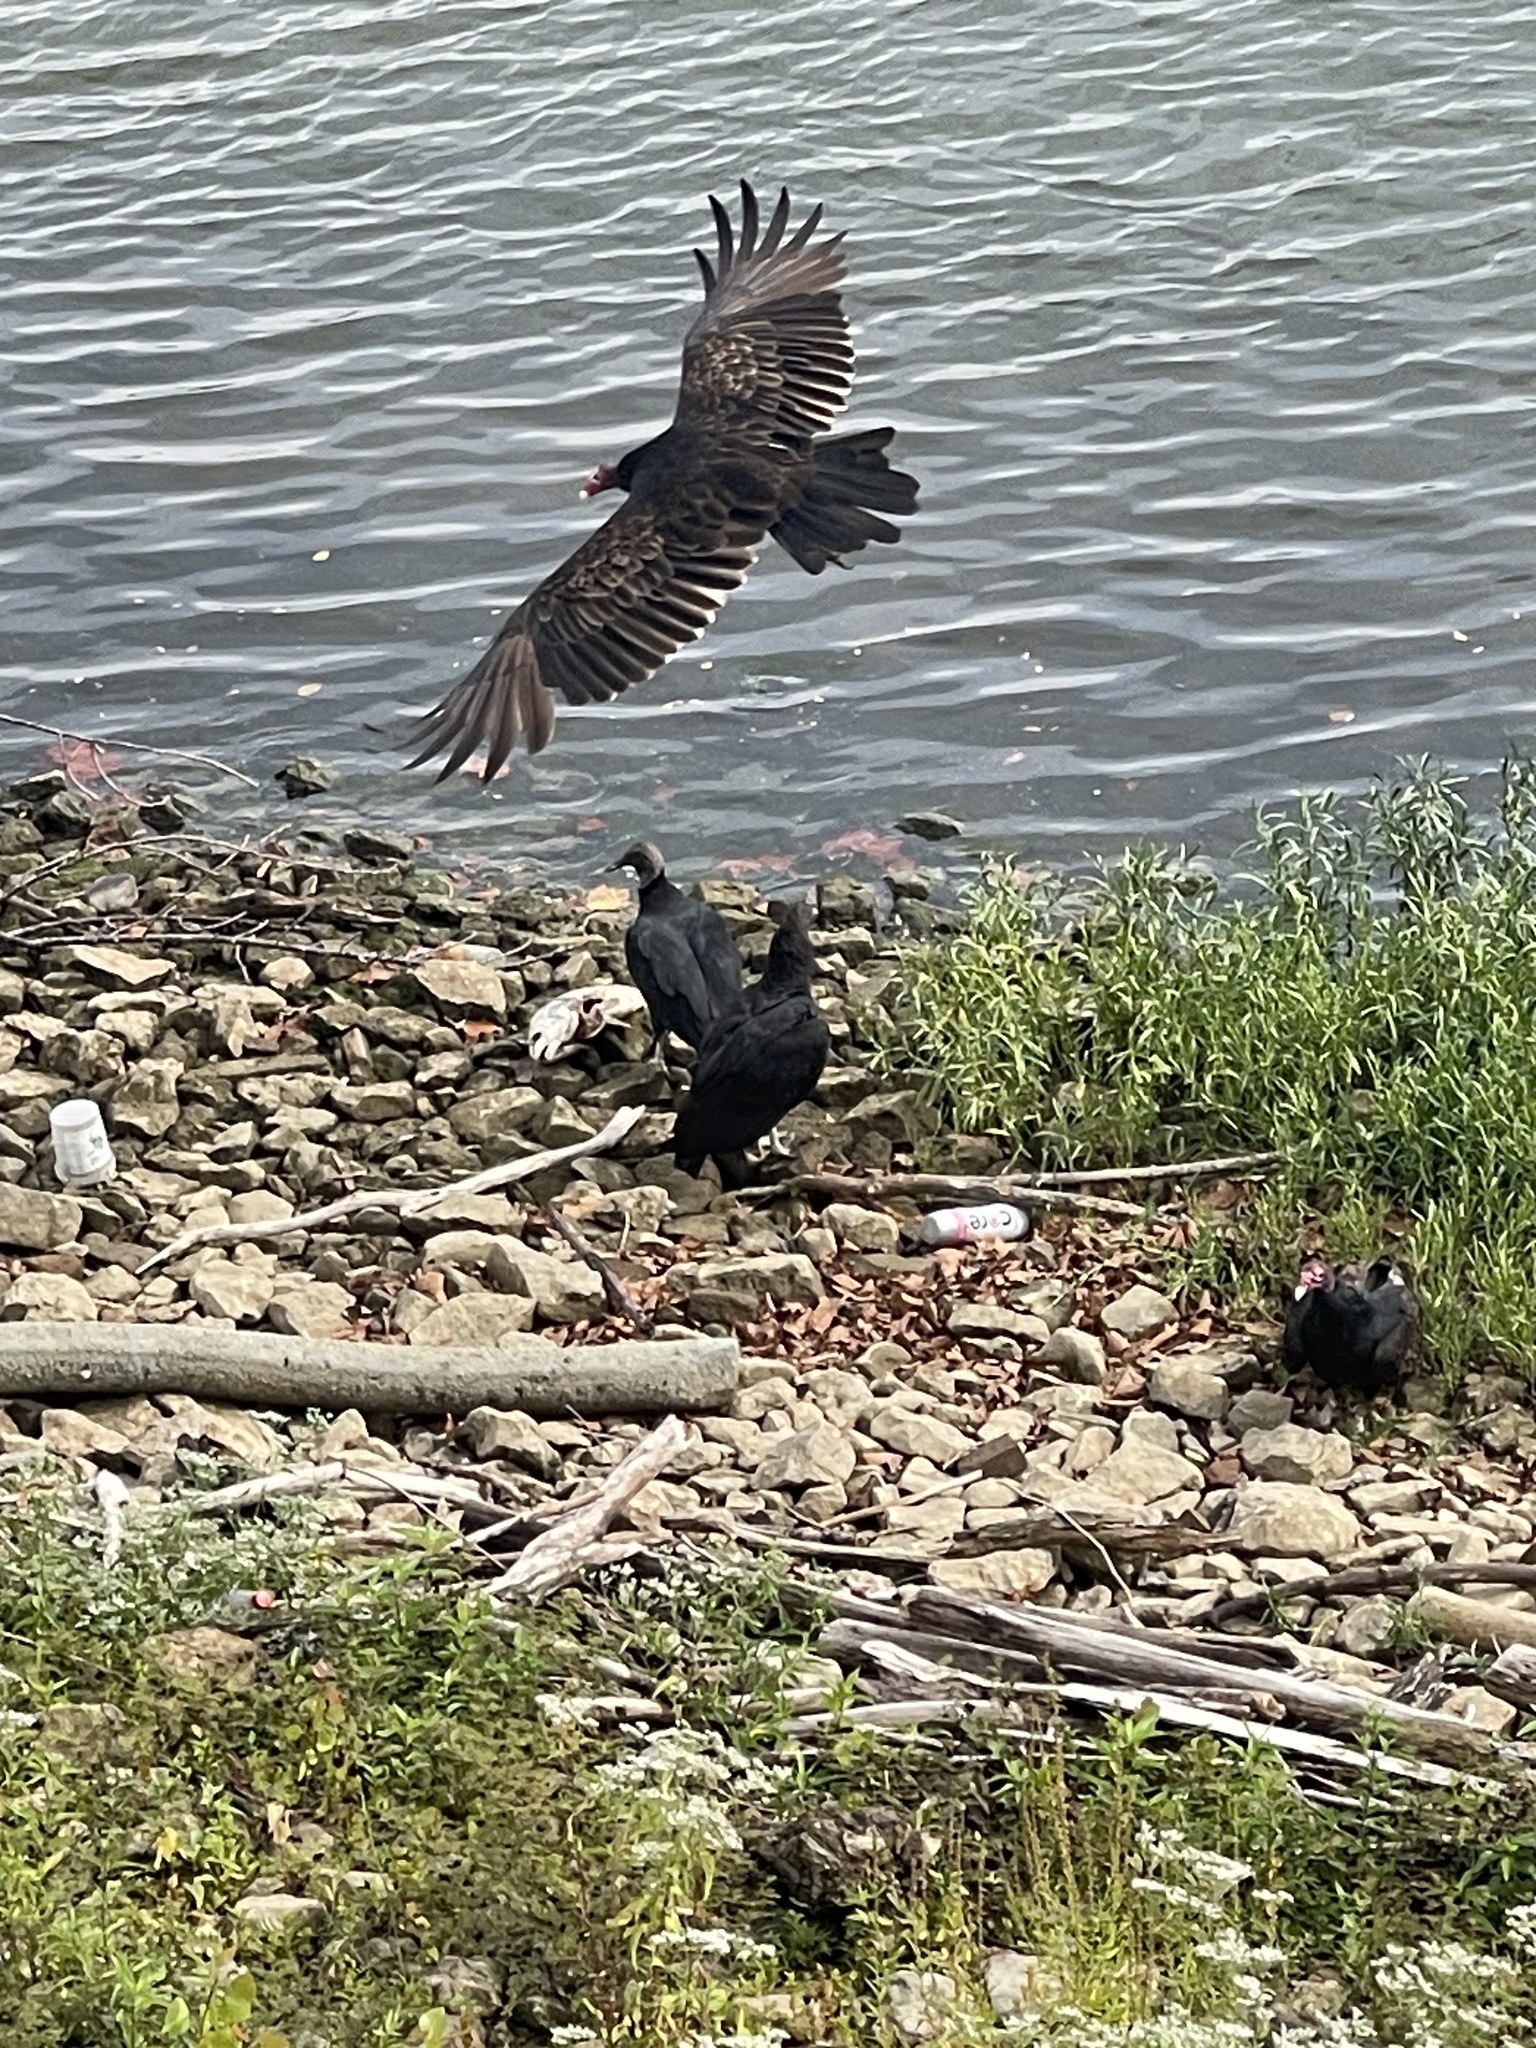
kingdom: Animalia
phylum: Chordata
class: Aves
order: Accipitriformes
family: Cathartidae
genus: Coragyps
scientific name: Coragyps atratus
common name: Black vulture
